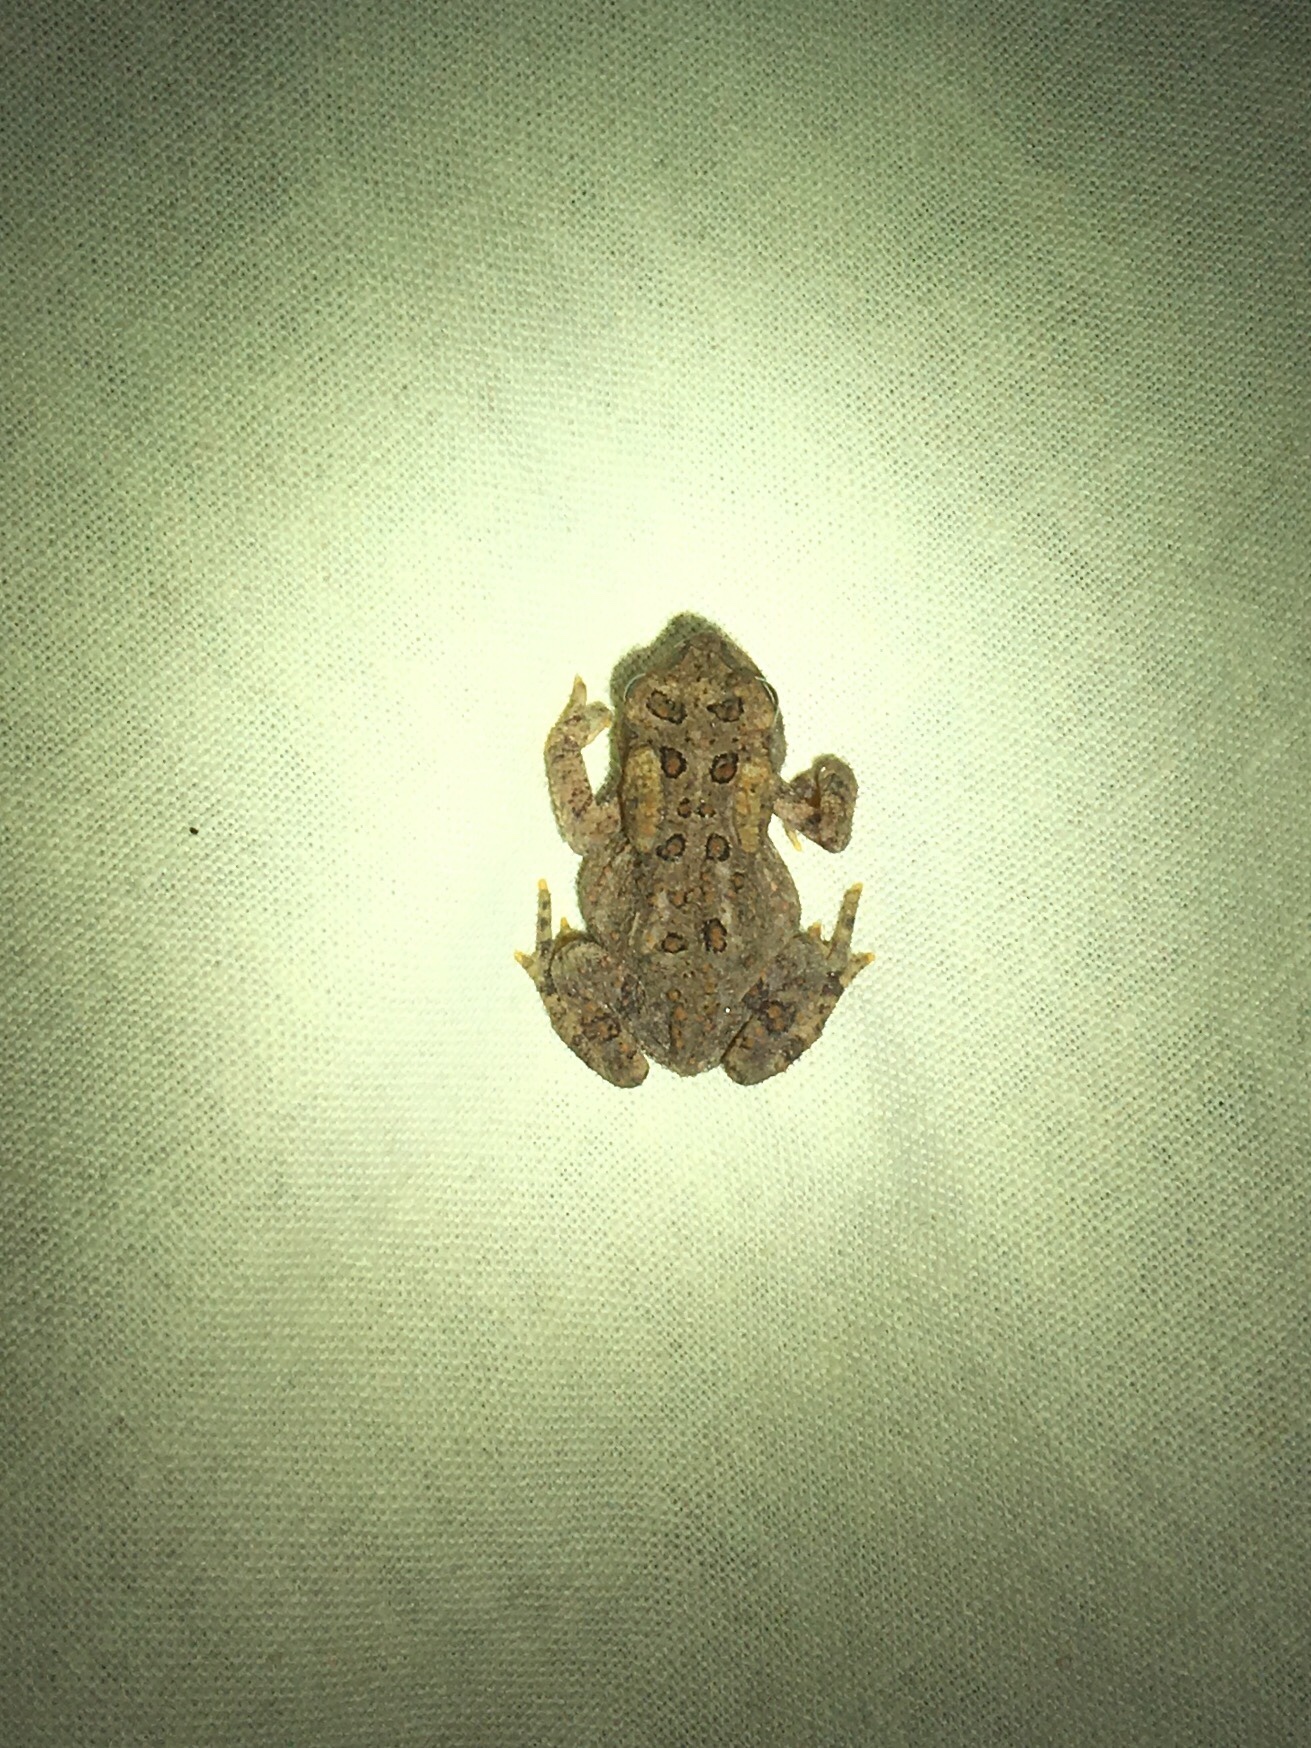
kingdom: Animalia
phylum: Chordata
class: Amphibia
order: Anura
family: Bufonidae
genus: Anaxyrus
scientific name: Anaxyrus americanus
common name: American toad
